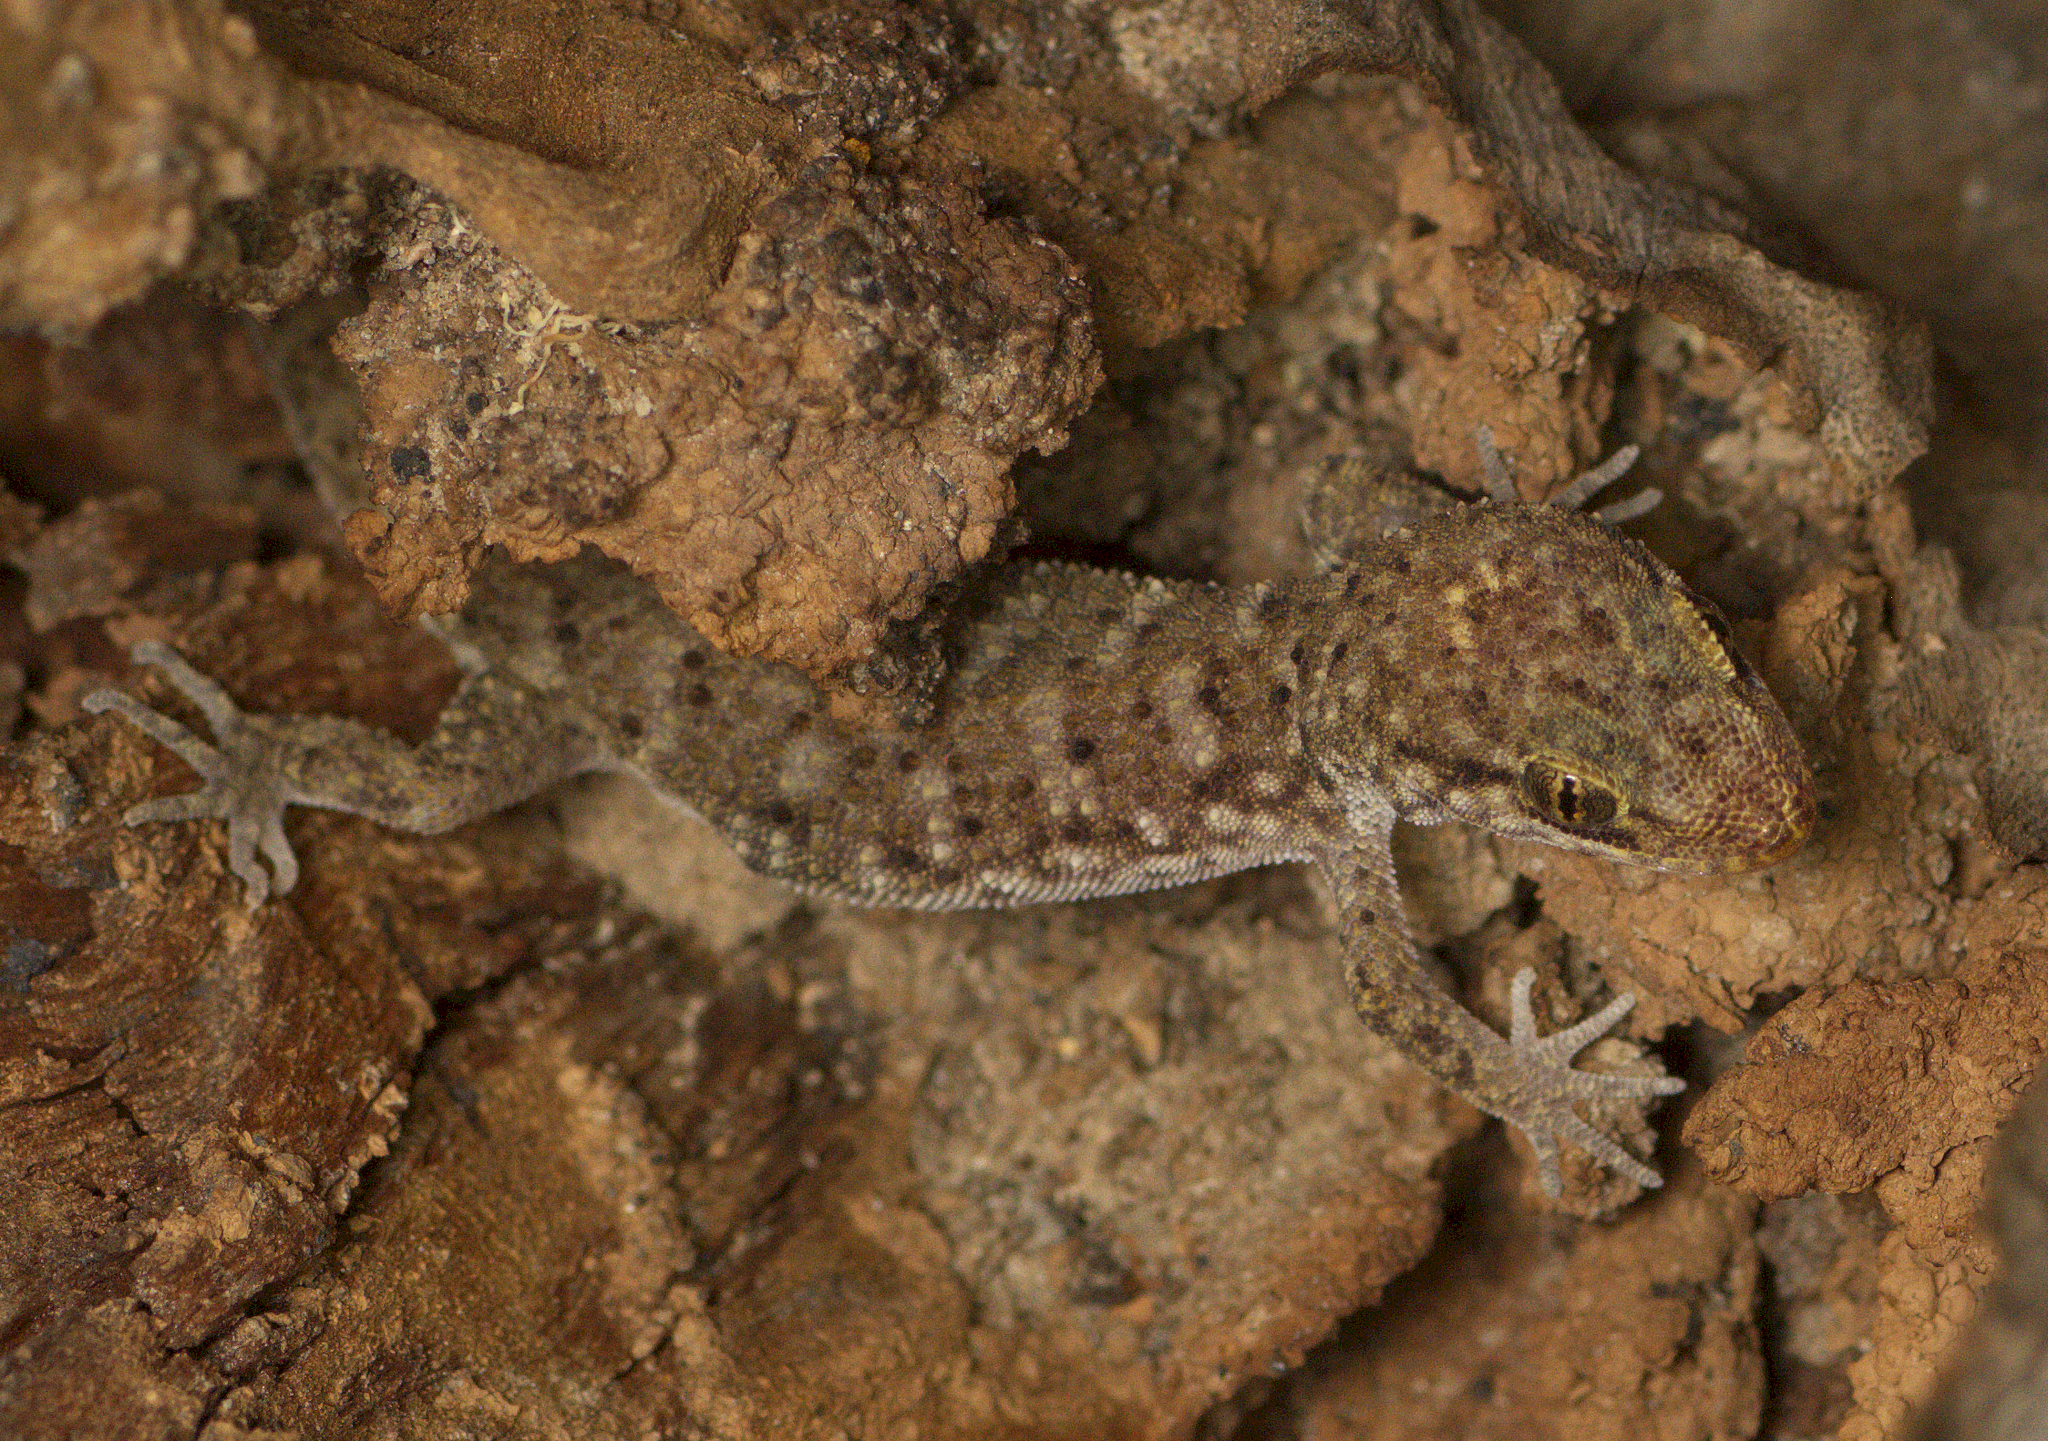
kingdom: Animalia
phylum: Chordata
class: Squamata
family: Gekkonidae
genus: Heteronotia
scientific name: Heteronotia binoei
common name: Bynoe's gecko
